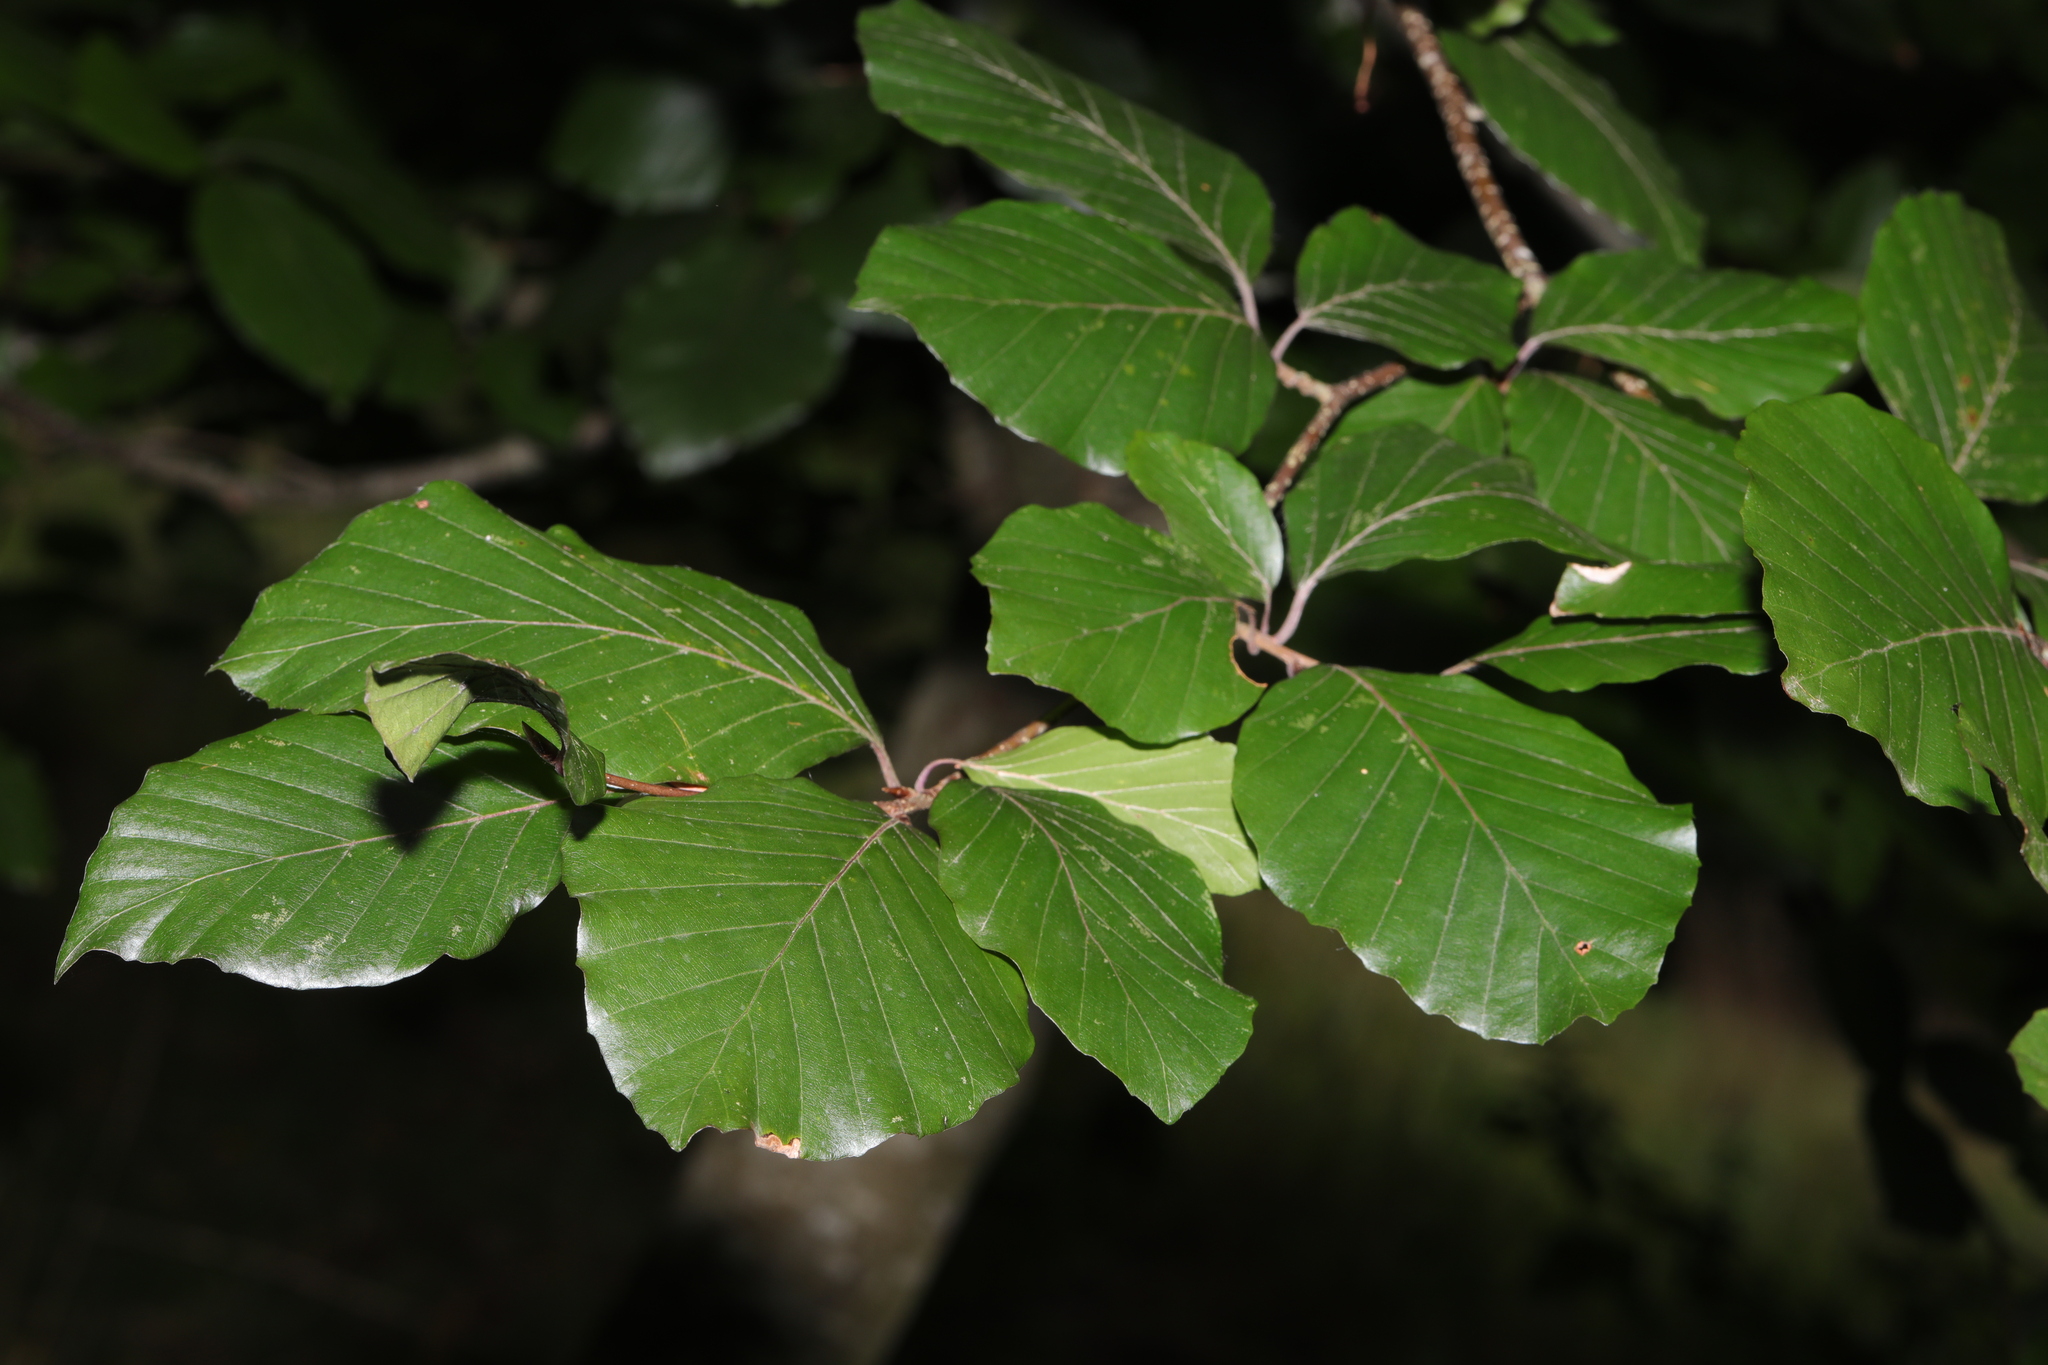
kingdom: Plantae
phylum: Tracheophyta
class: Magnoliopsida
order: Fagales
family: Fagaceae
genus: Fagus
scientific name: Fagus sylvatica
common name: Beech
